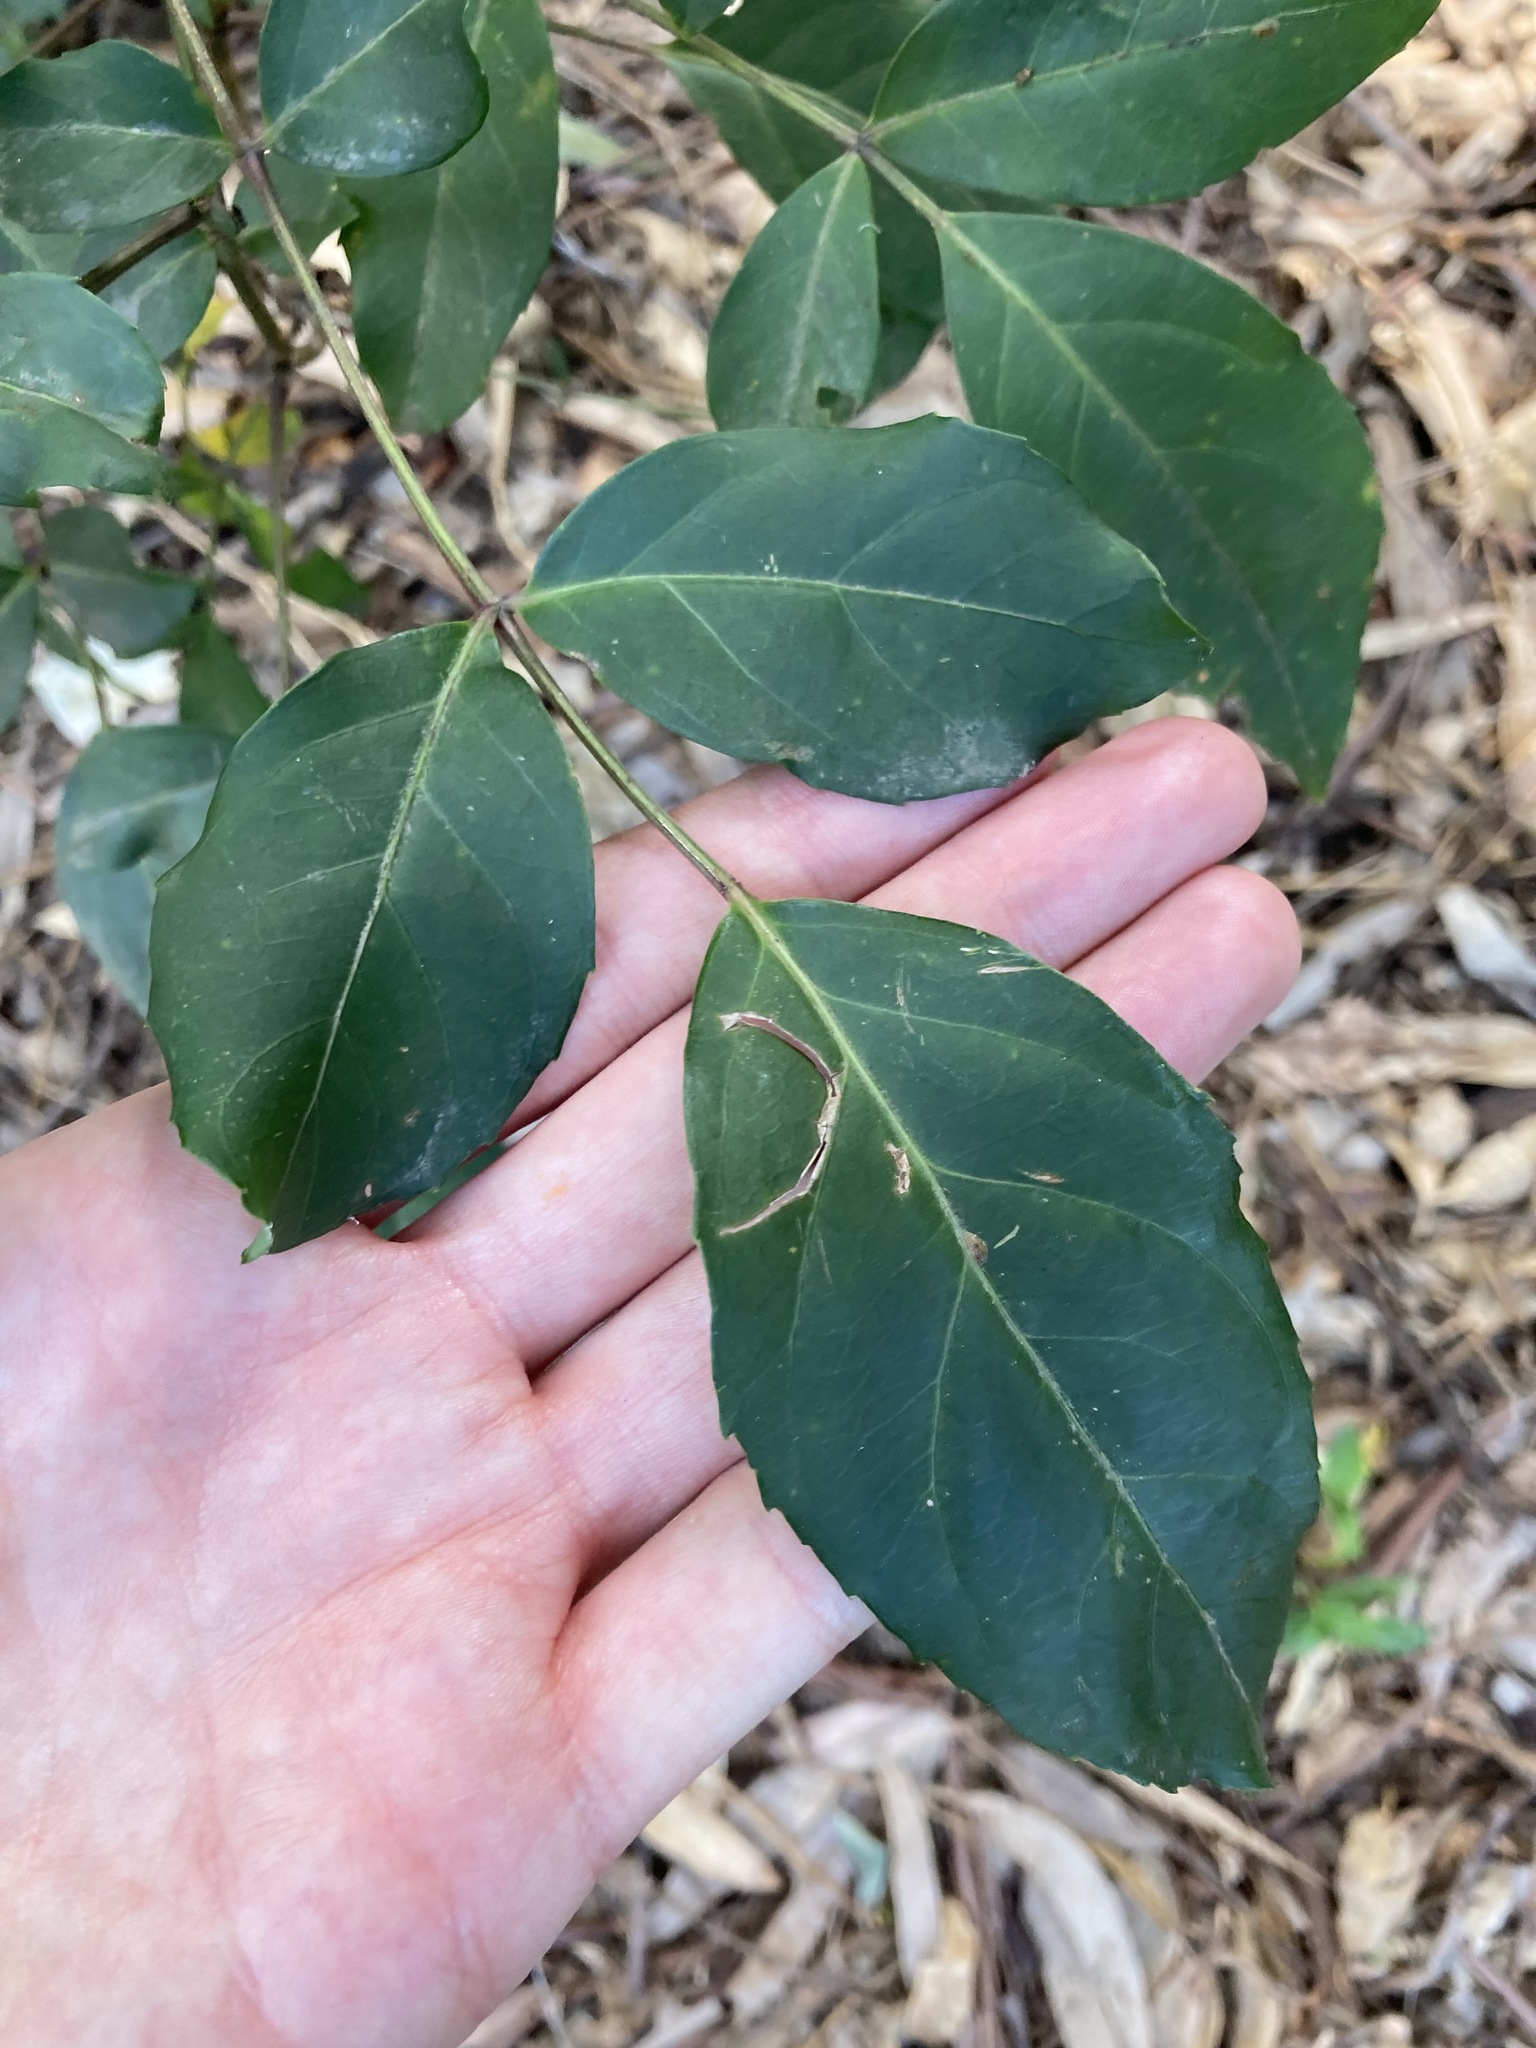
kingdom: Plantae
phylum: Tracheophyta
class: Magnoliopsida
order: Apiales
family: Araliaceae
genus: Polyscias
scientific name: Polyscias sambucifolia
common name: Elderberry-ash
